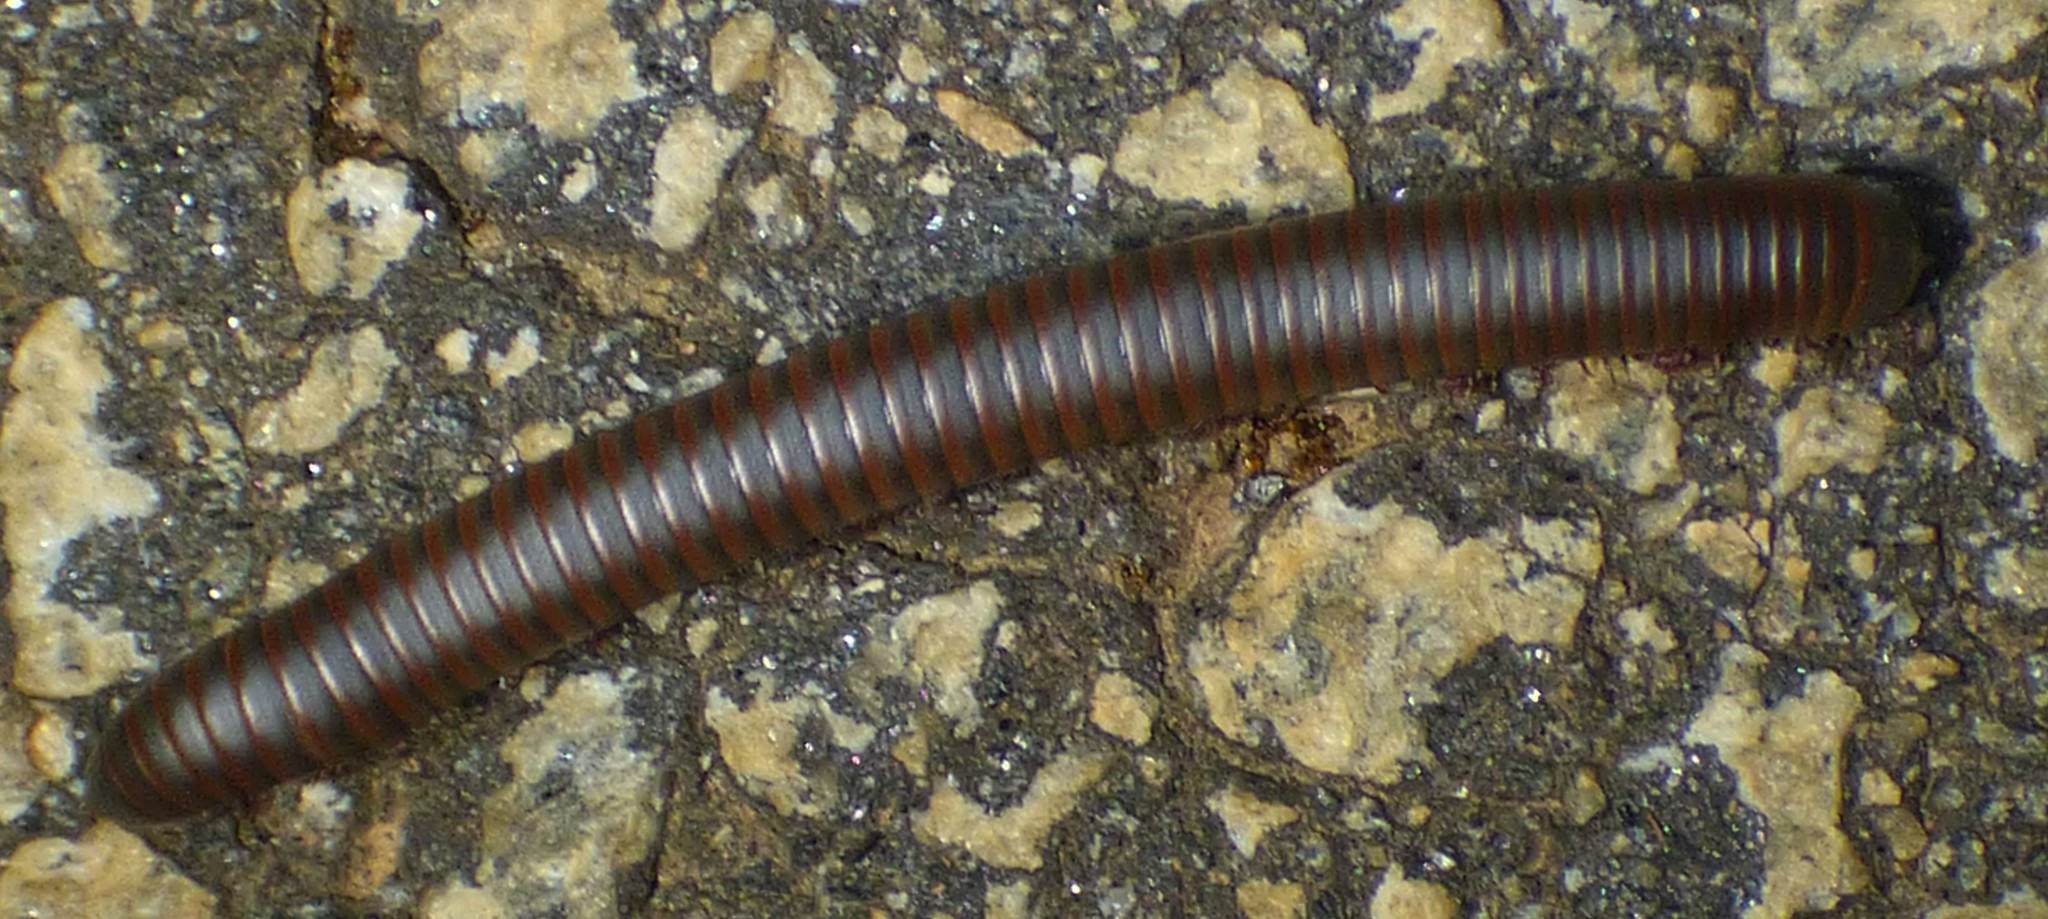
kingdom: Animalia
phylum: Arthropoda
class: Diplopoda
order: Spirobolida
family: Spirobolidae
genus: Narceus
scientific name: Narceus
